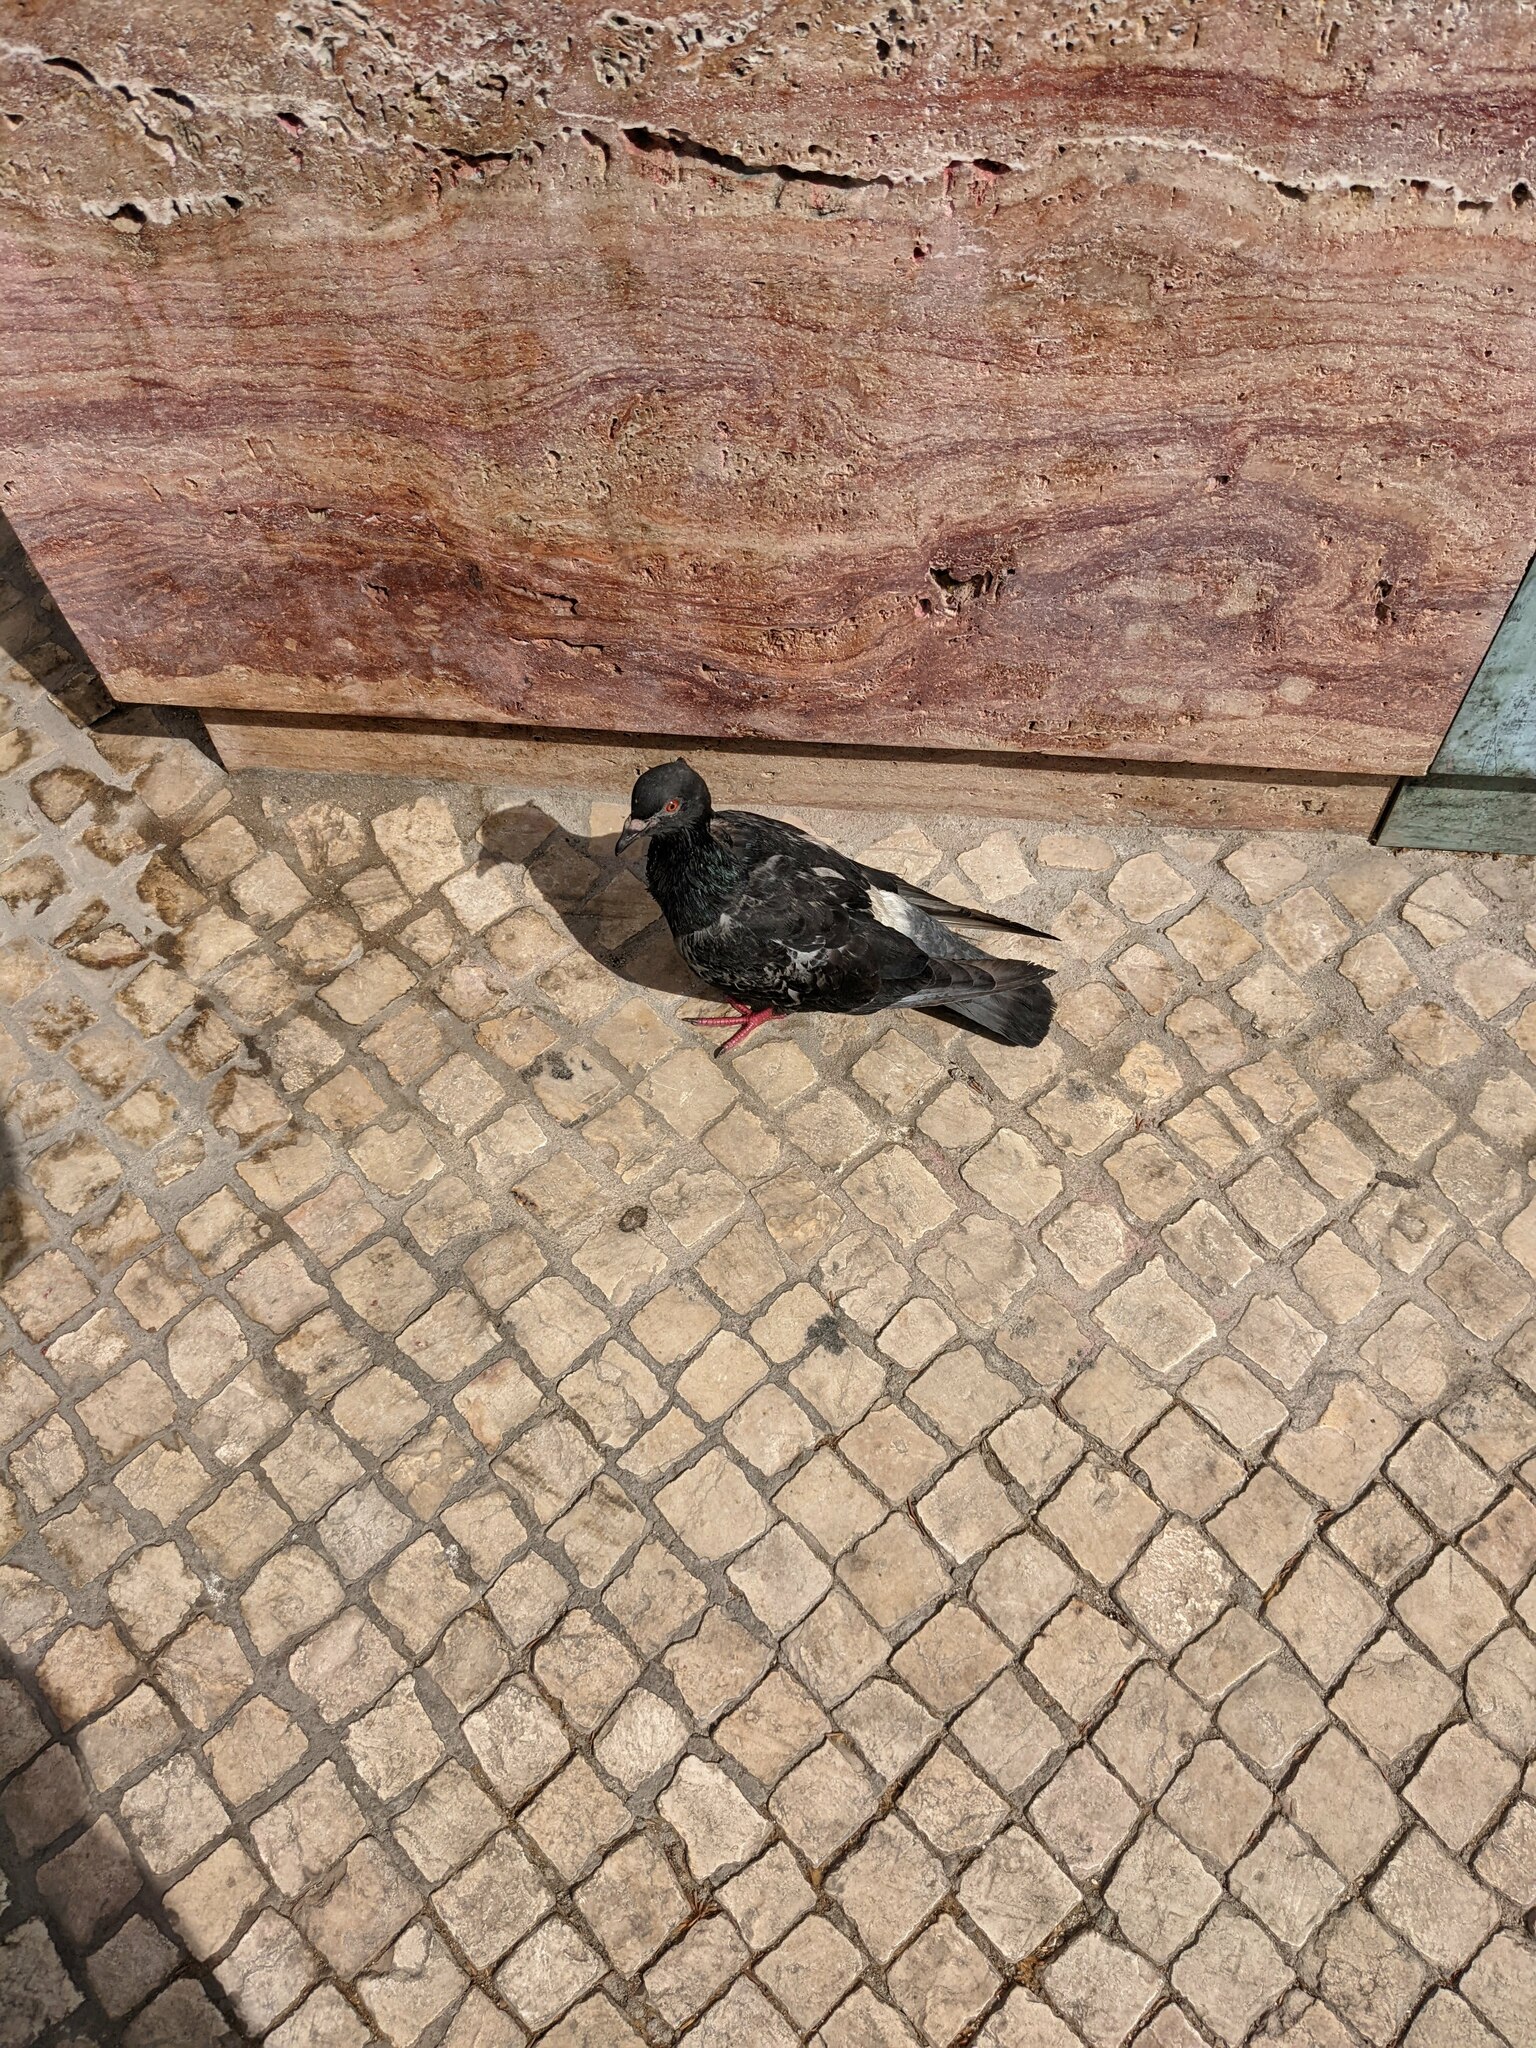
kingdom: Animalia
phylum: Chordata
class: Aves
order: Columbiformes
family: Columbidae
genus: Columba
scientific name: Columba livia
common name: Rock pigeon
